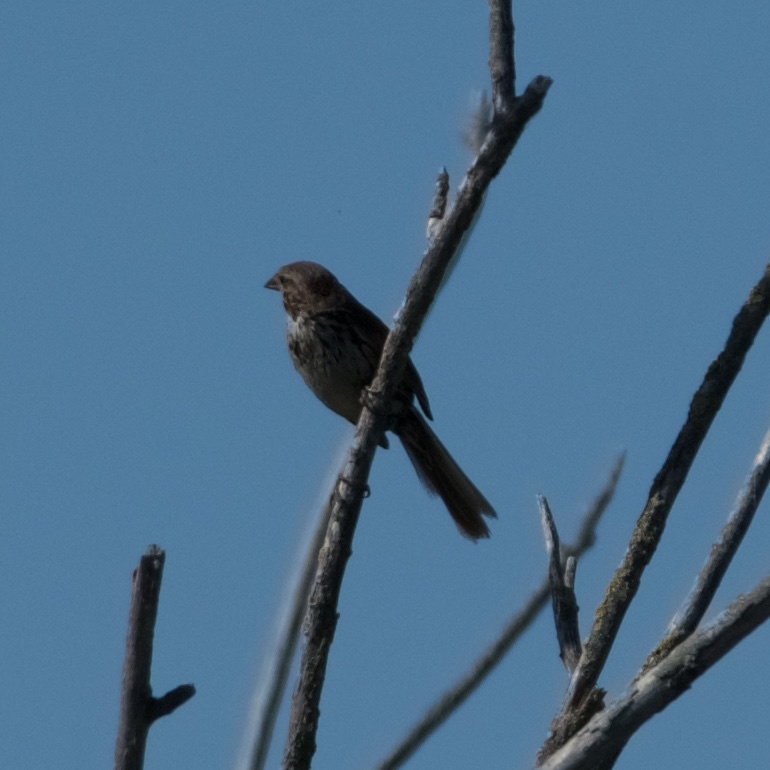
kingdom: Animalia
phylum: Chordata
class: Aves
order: Passeriformes
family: Passerellidae
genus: Melospiza
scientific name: Melospiza melodia
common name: Song sparrow
